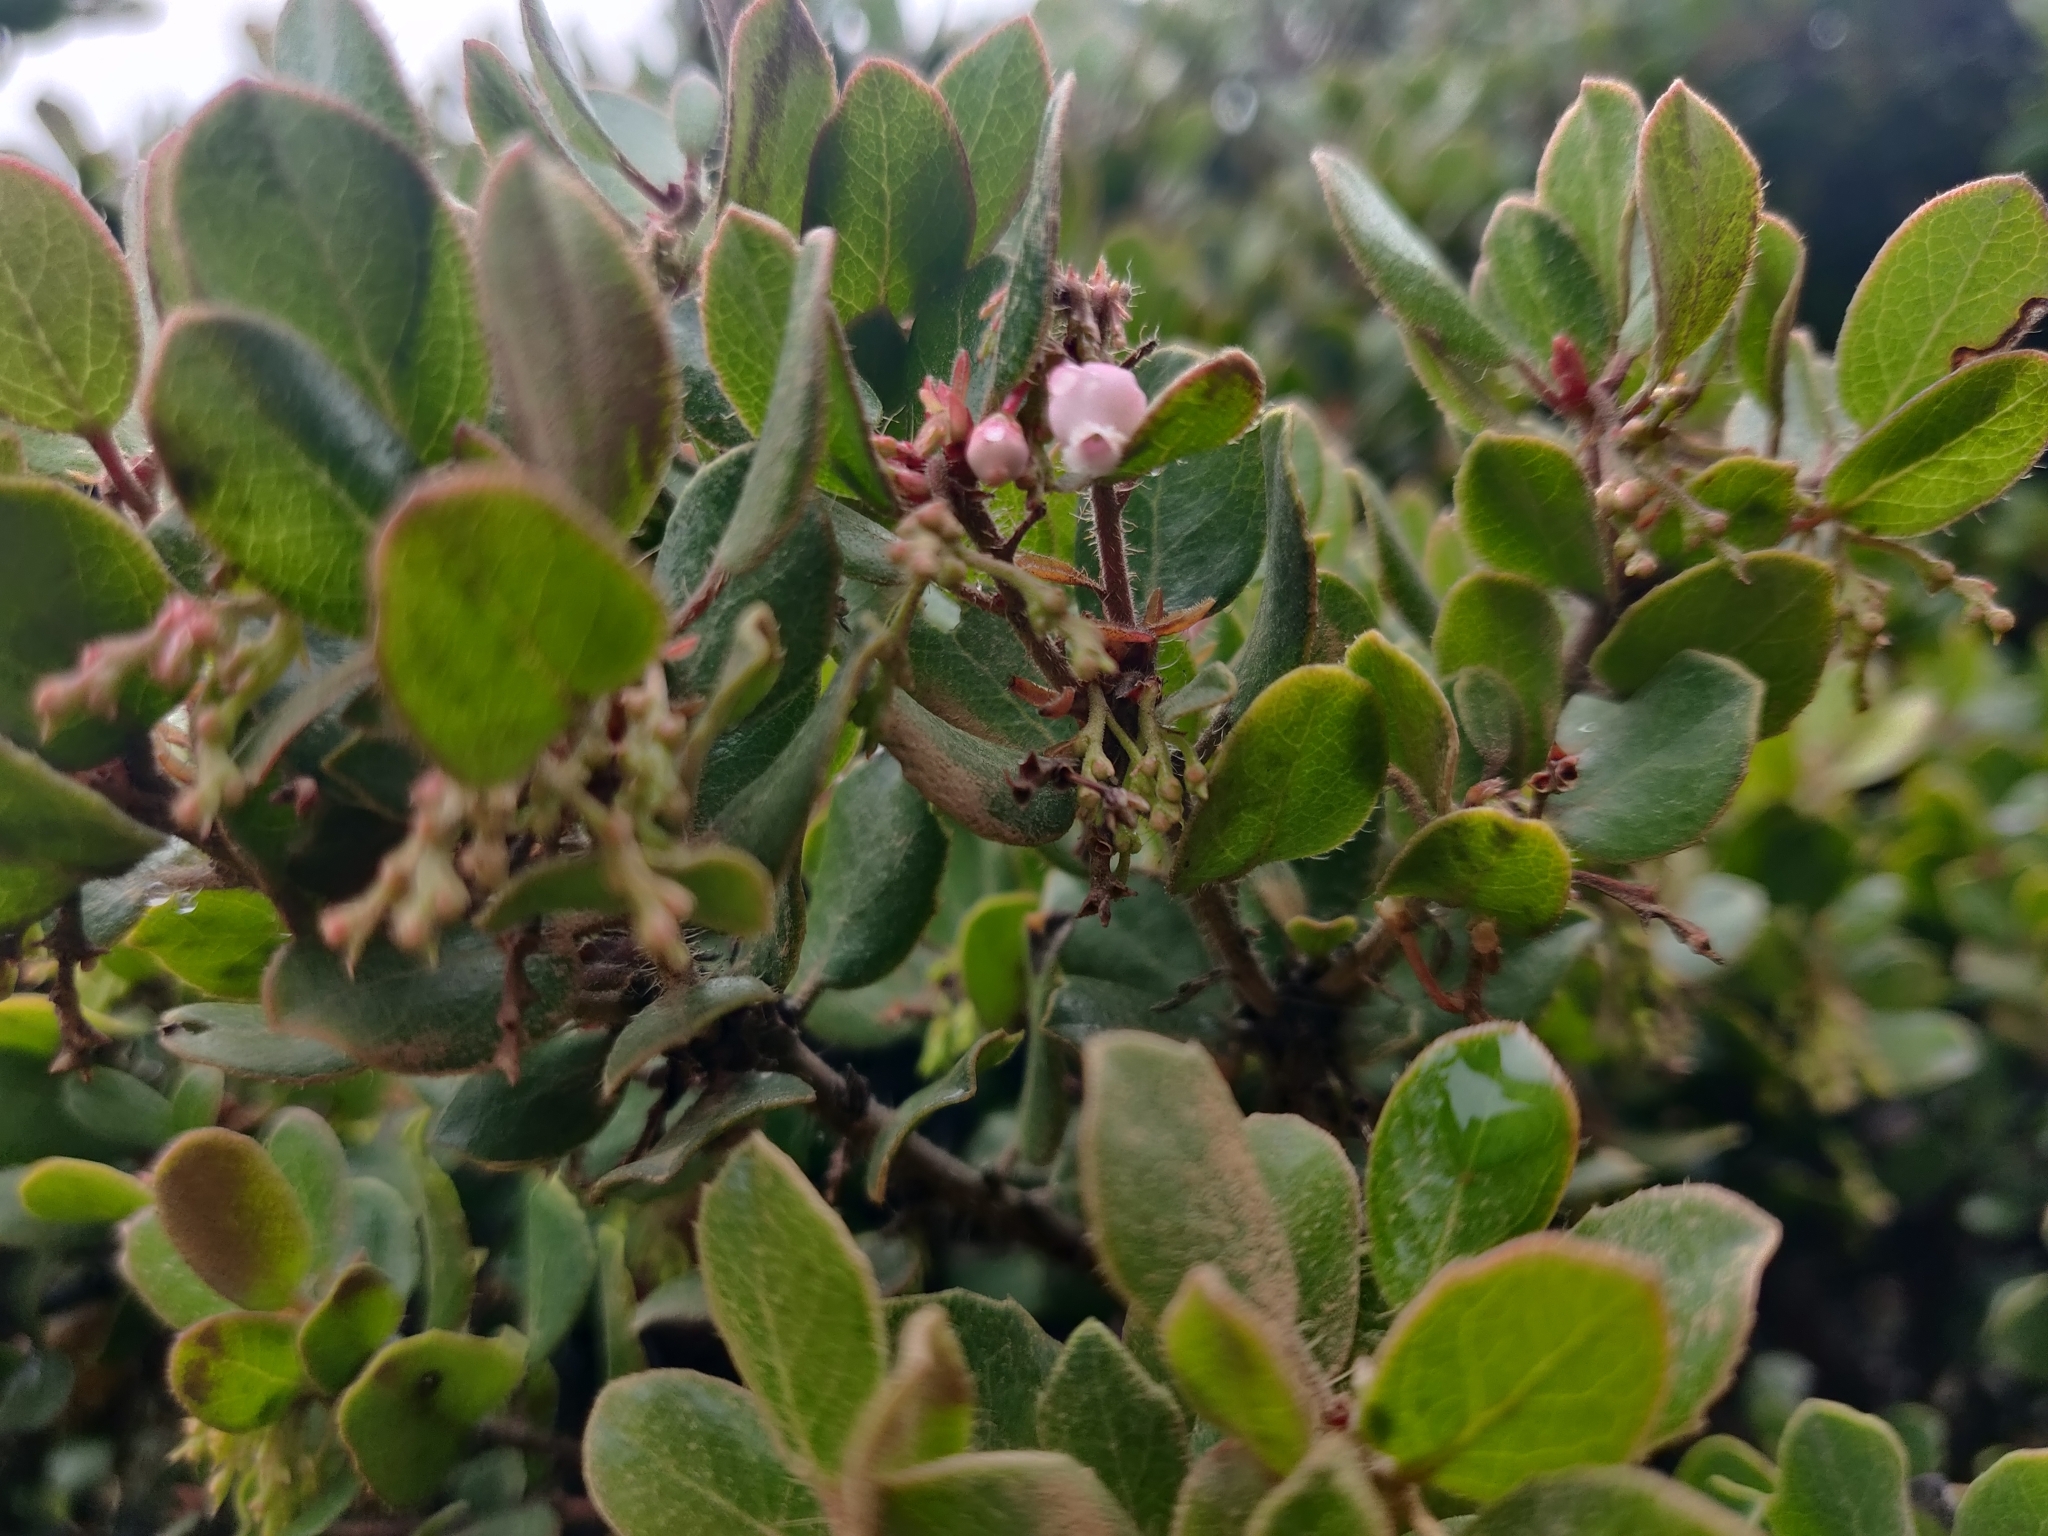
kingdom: Plantae
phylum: Tracheophyta
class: Magnoliopsida
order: Ericales
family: Ericaceae
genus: Arctostaphylos
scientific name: Arctostaphylos nummularia
